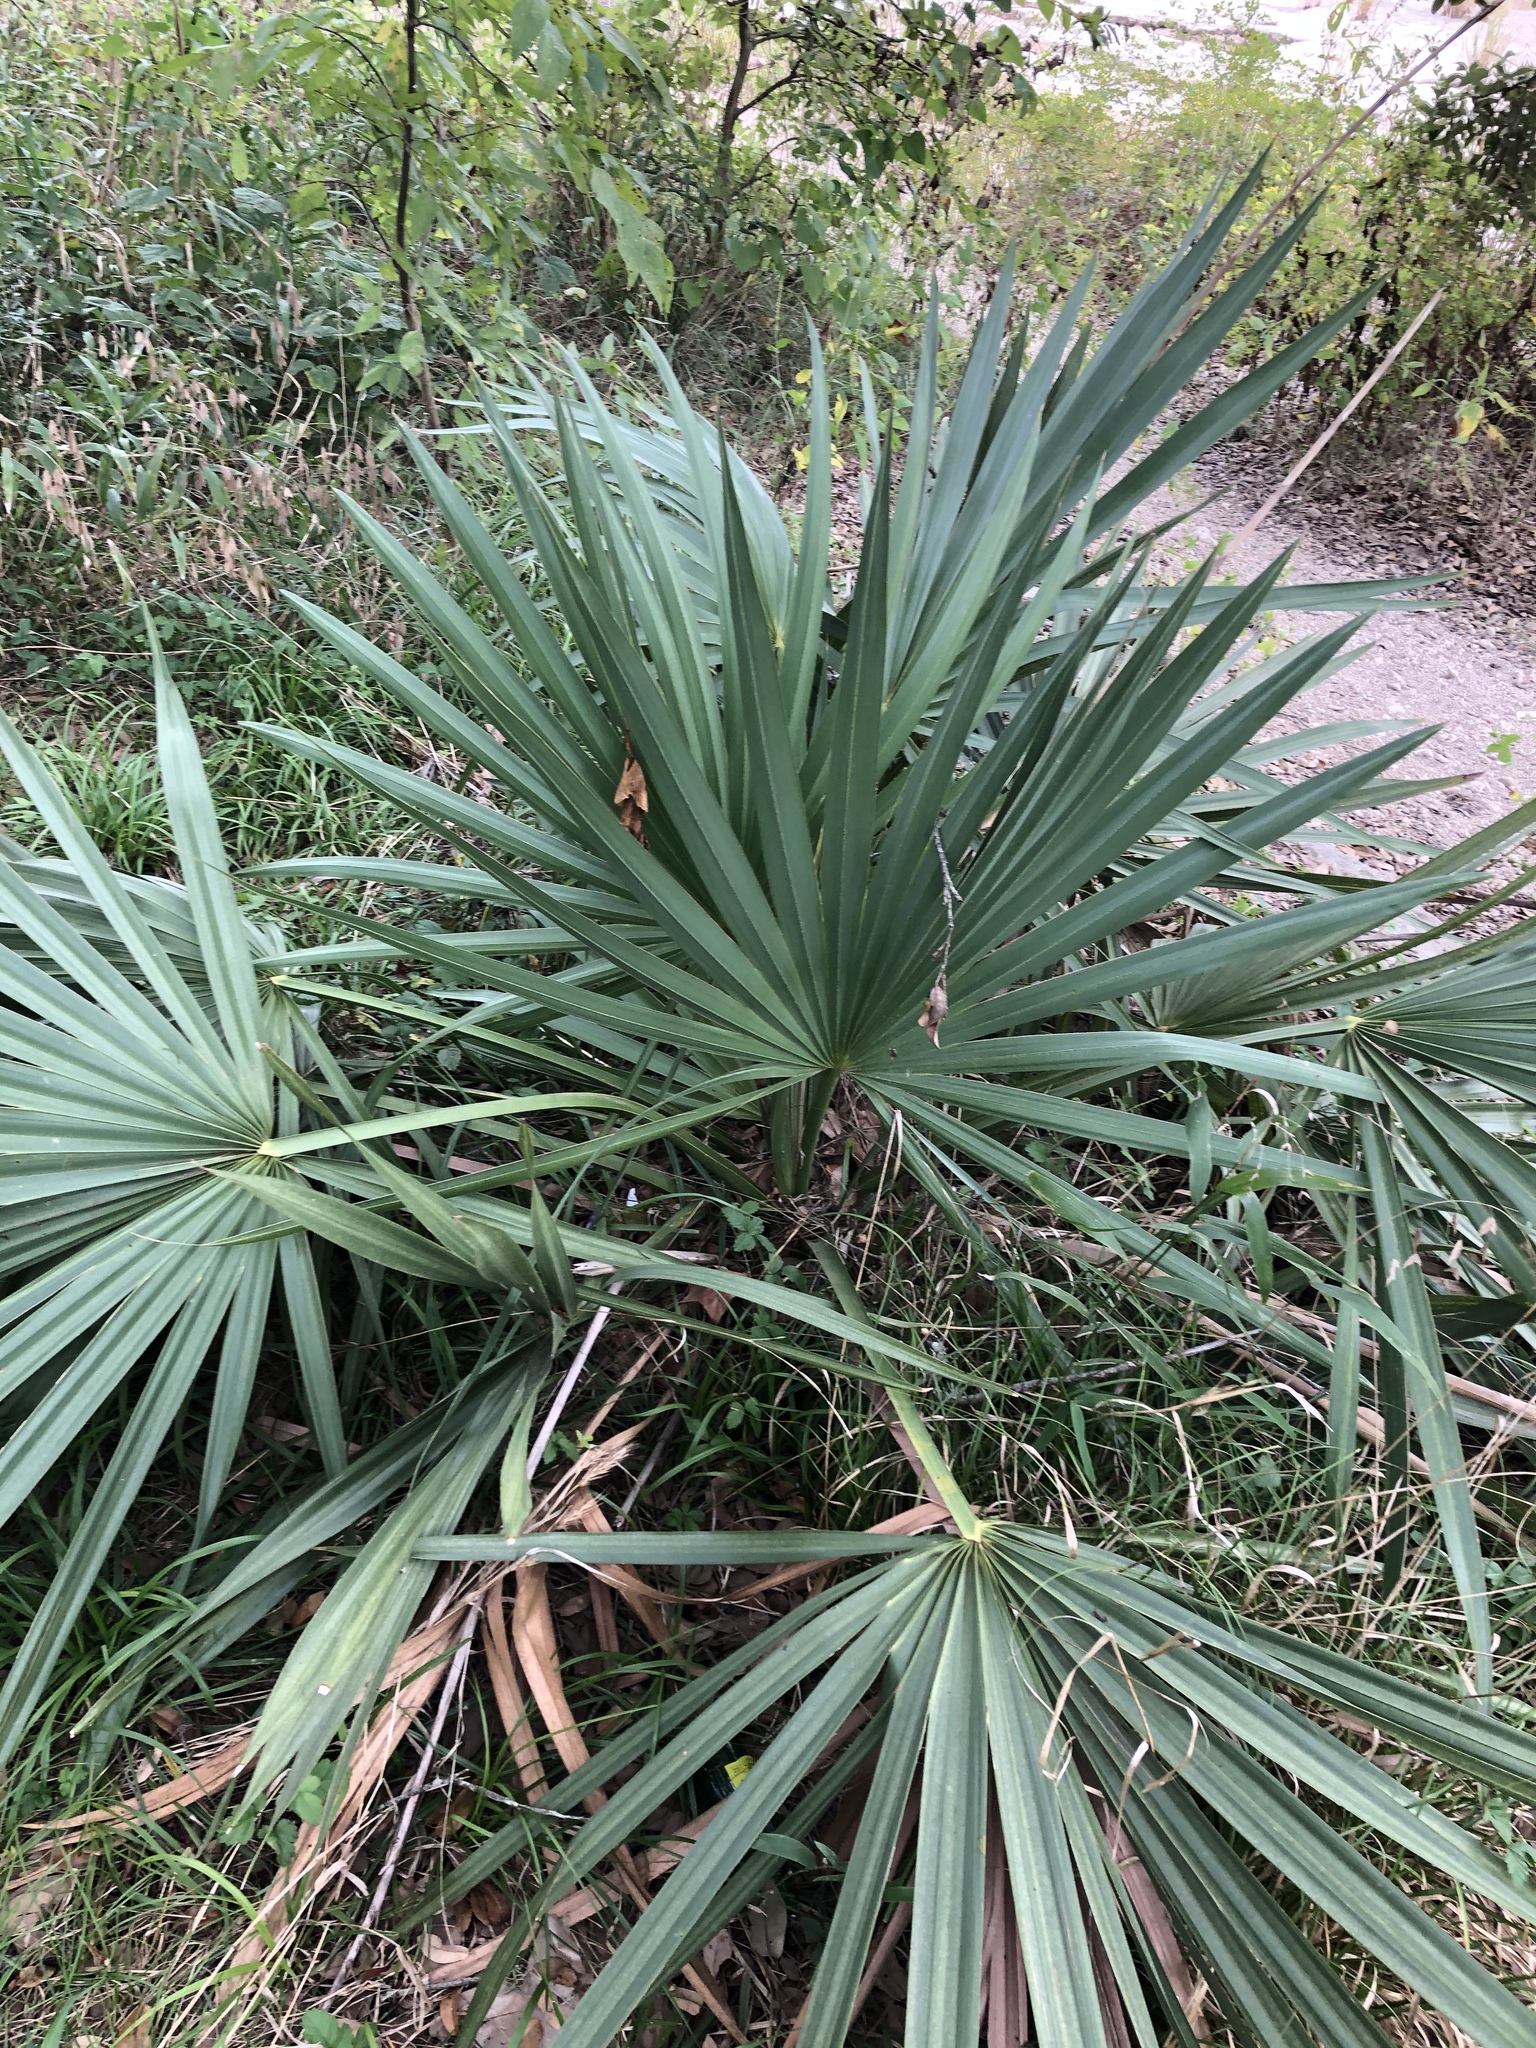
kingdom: Plantae
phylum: Tracheophyta
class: Liliopsida
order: Arecales
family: Arecaceae
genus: Sabal
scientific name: Sabal minor
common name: Dwarf palmetto
